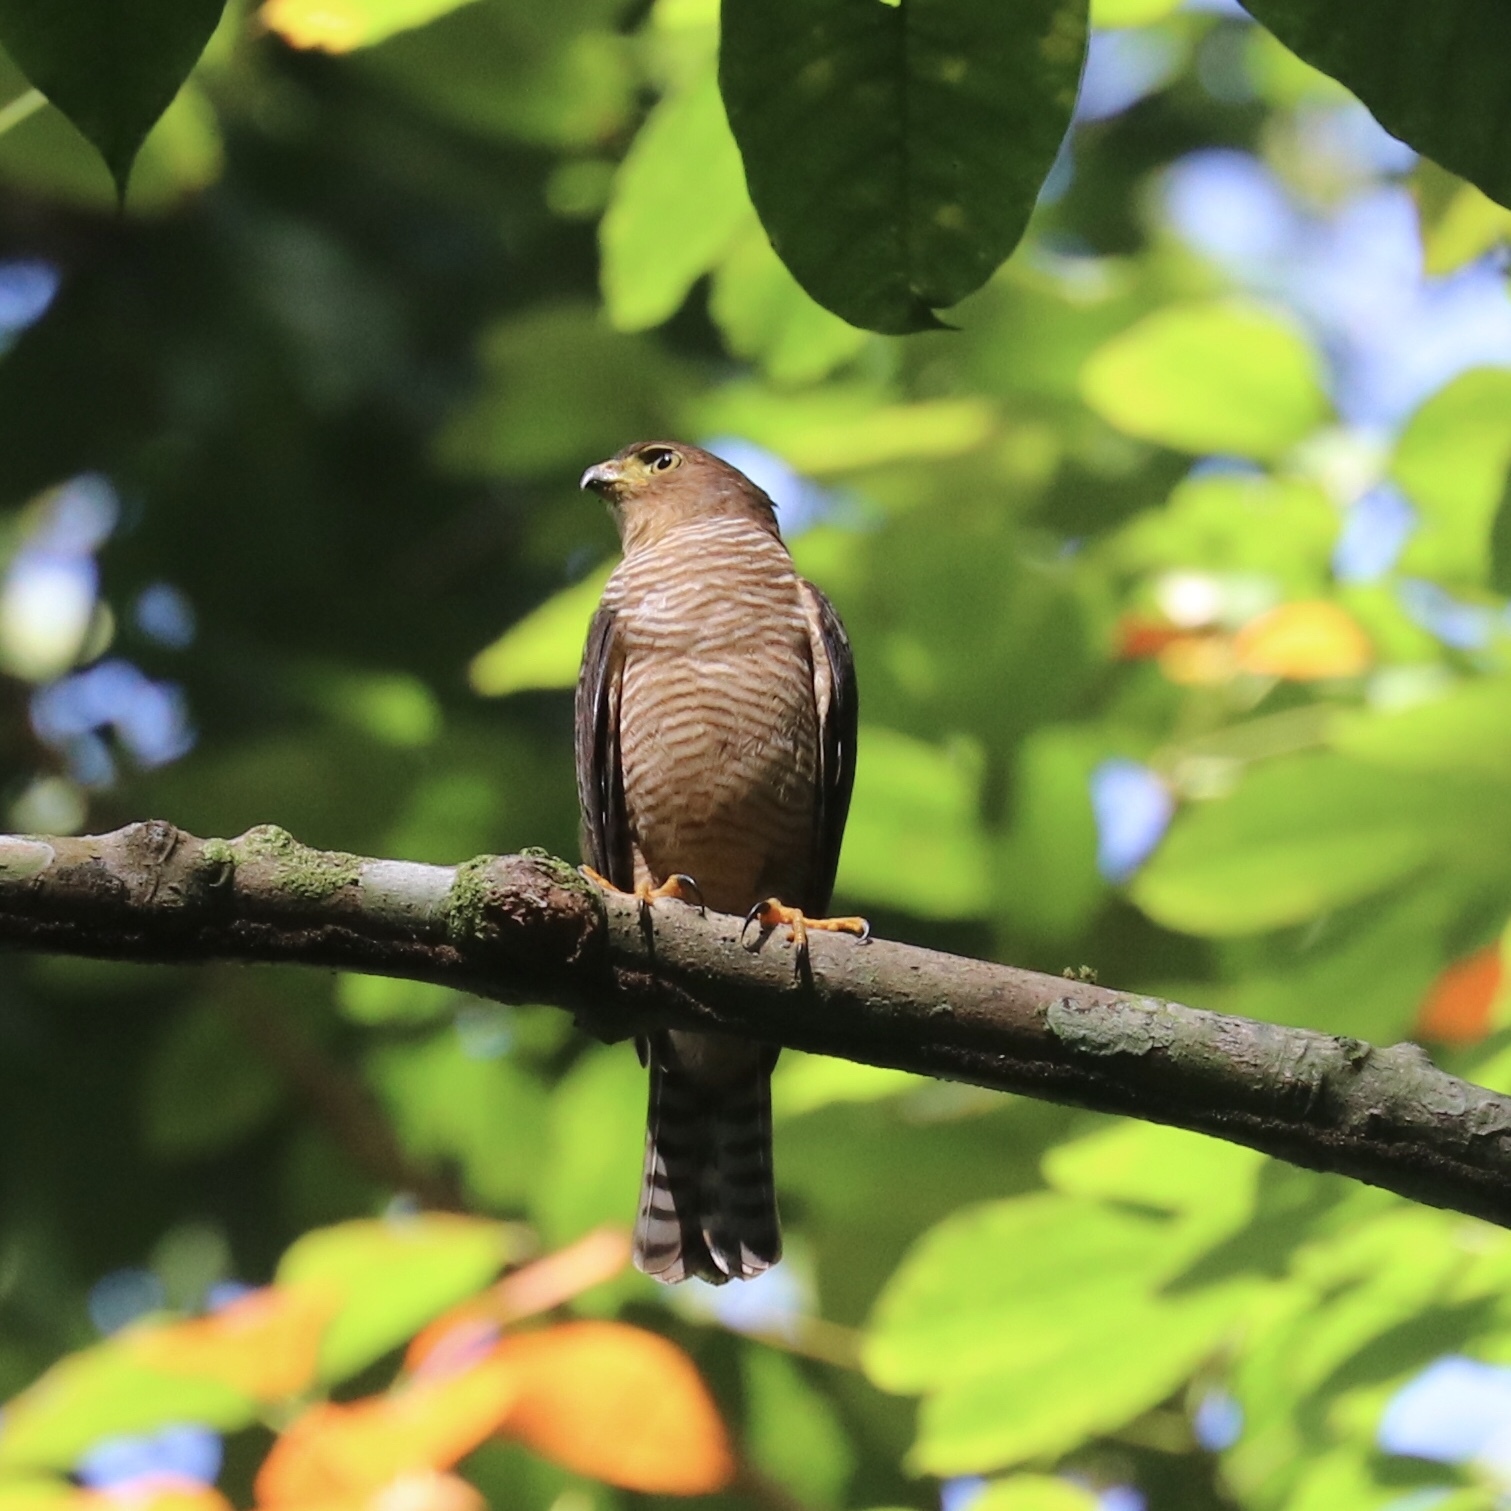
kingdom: Animalia
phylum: Chordata
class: Aves
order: Accipitriformes
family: Accipitridae
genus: Accipiter
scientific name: Accipiter superciliosus
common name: Tiny hawk
